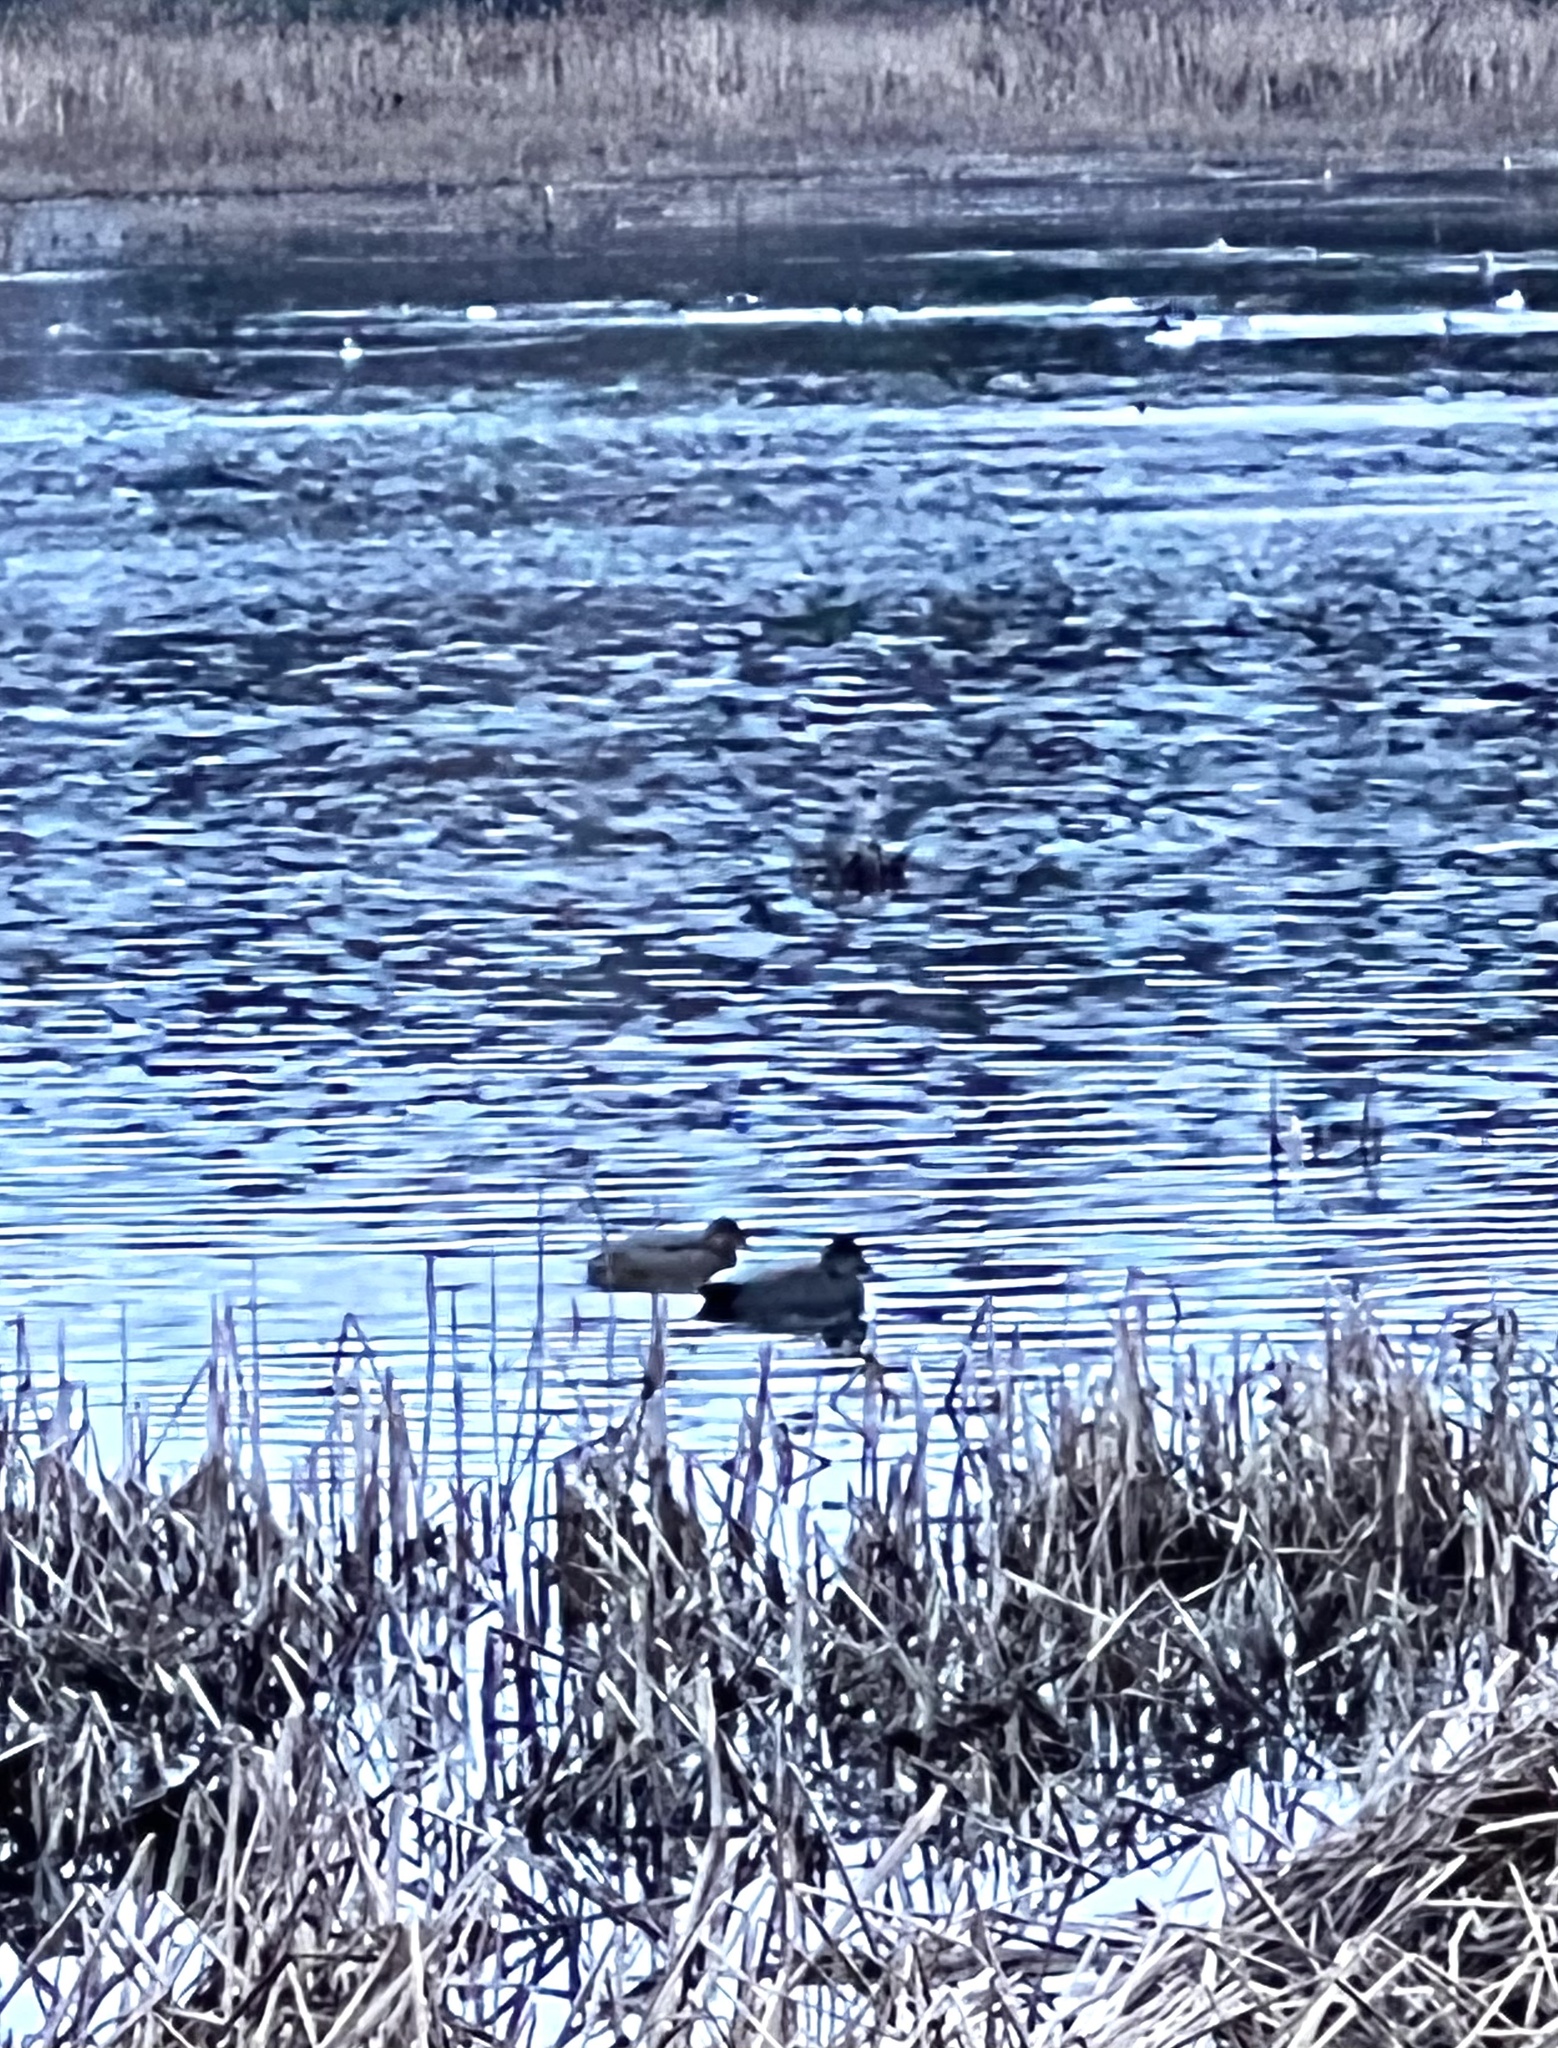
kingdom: Animalia
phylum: Chordata
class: Aves
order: Anseriformes
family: Anatidae
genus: Mareca
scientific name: Mareca strepera
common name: Gadwall
